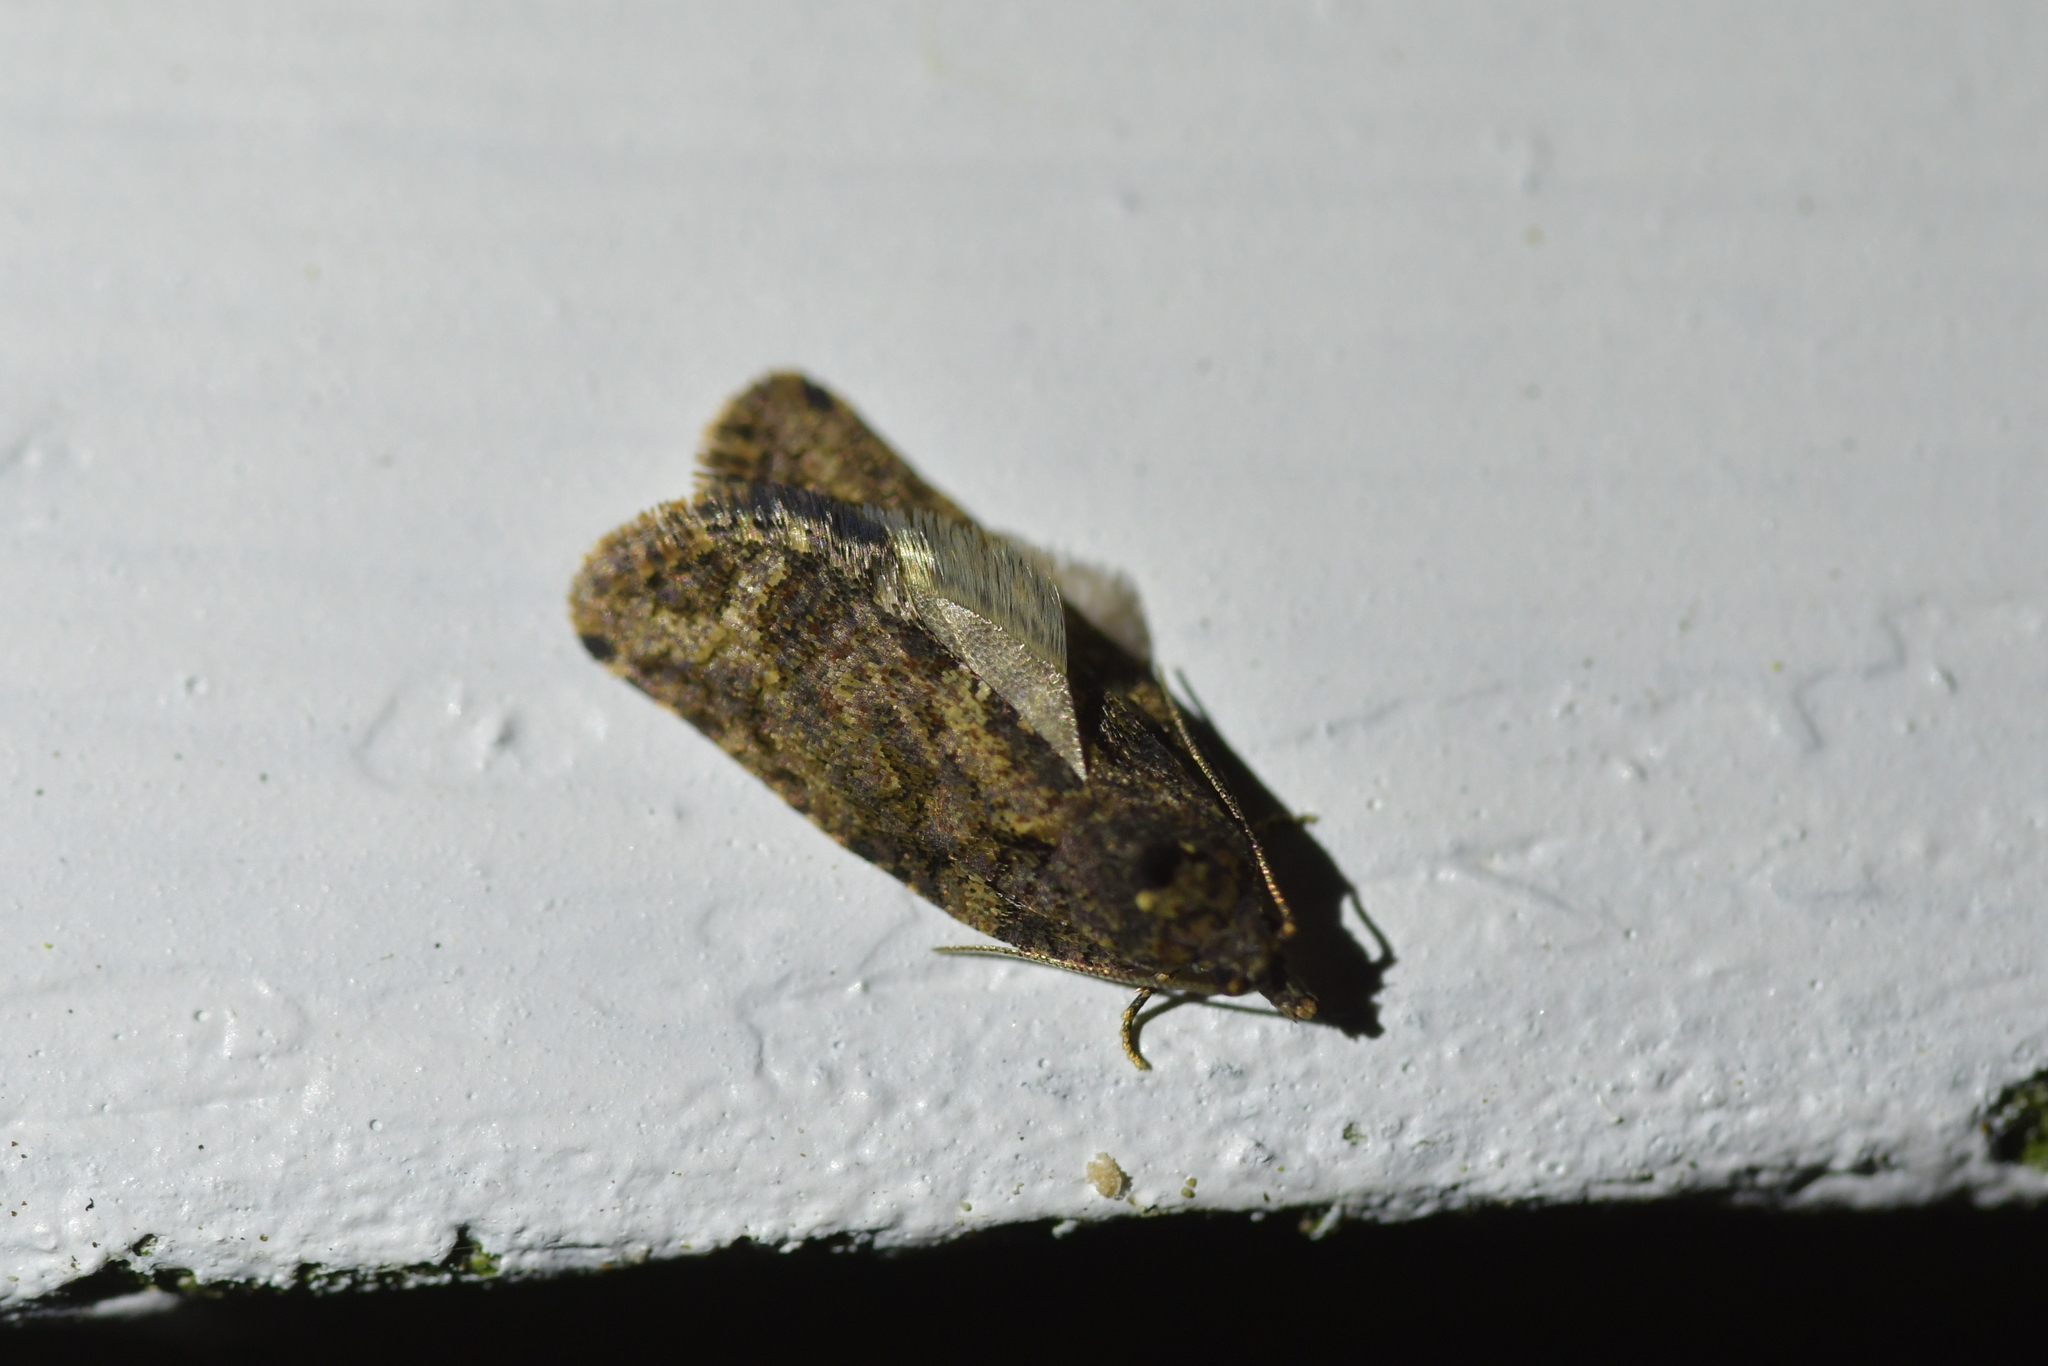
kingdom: Animalia
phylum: Arthropoda
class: Insecta
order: Lepidoptera
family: Tortricidae
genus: Capua
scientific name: Capua intractana
